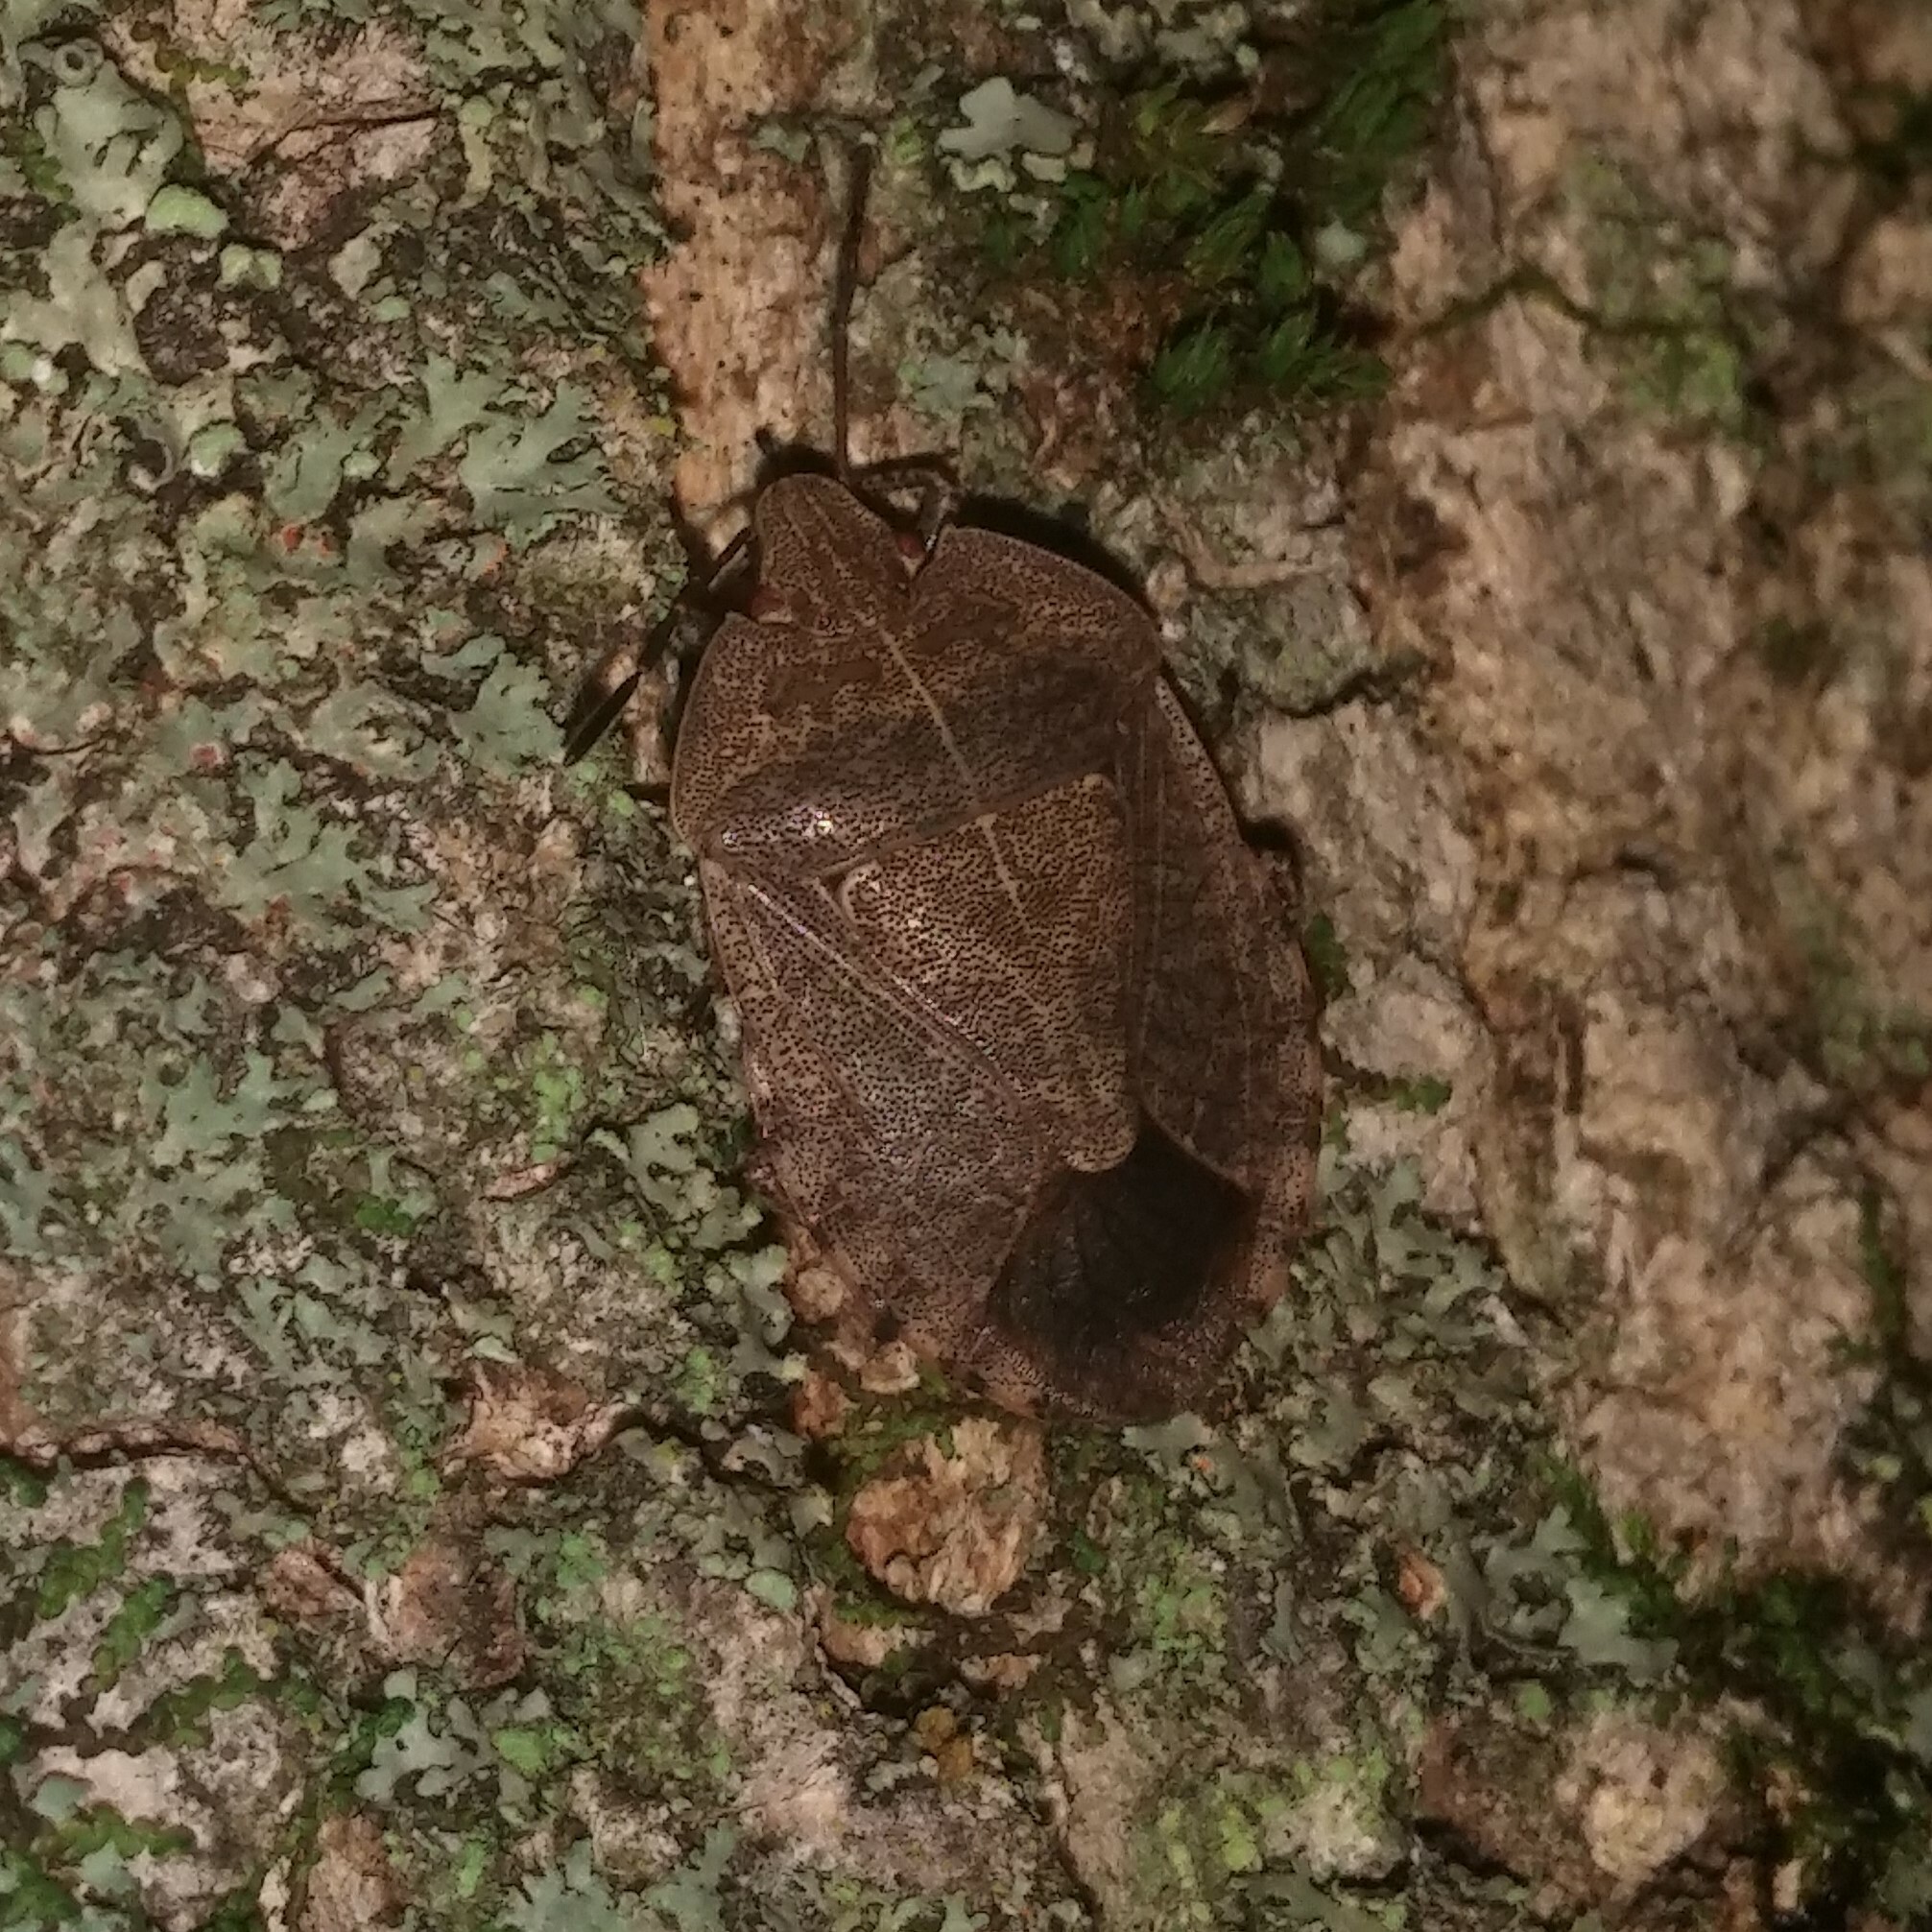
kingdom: Animalia
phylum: Arthropoda
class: Insecta
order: Hemiptera
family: Pentatomidae
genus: Menecles
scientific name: Menecles insertus
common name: Elf shoe stink bug
